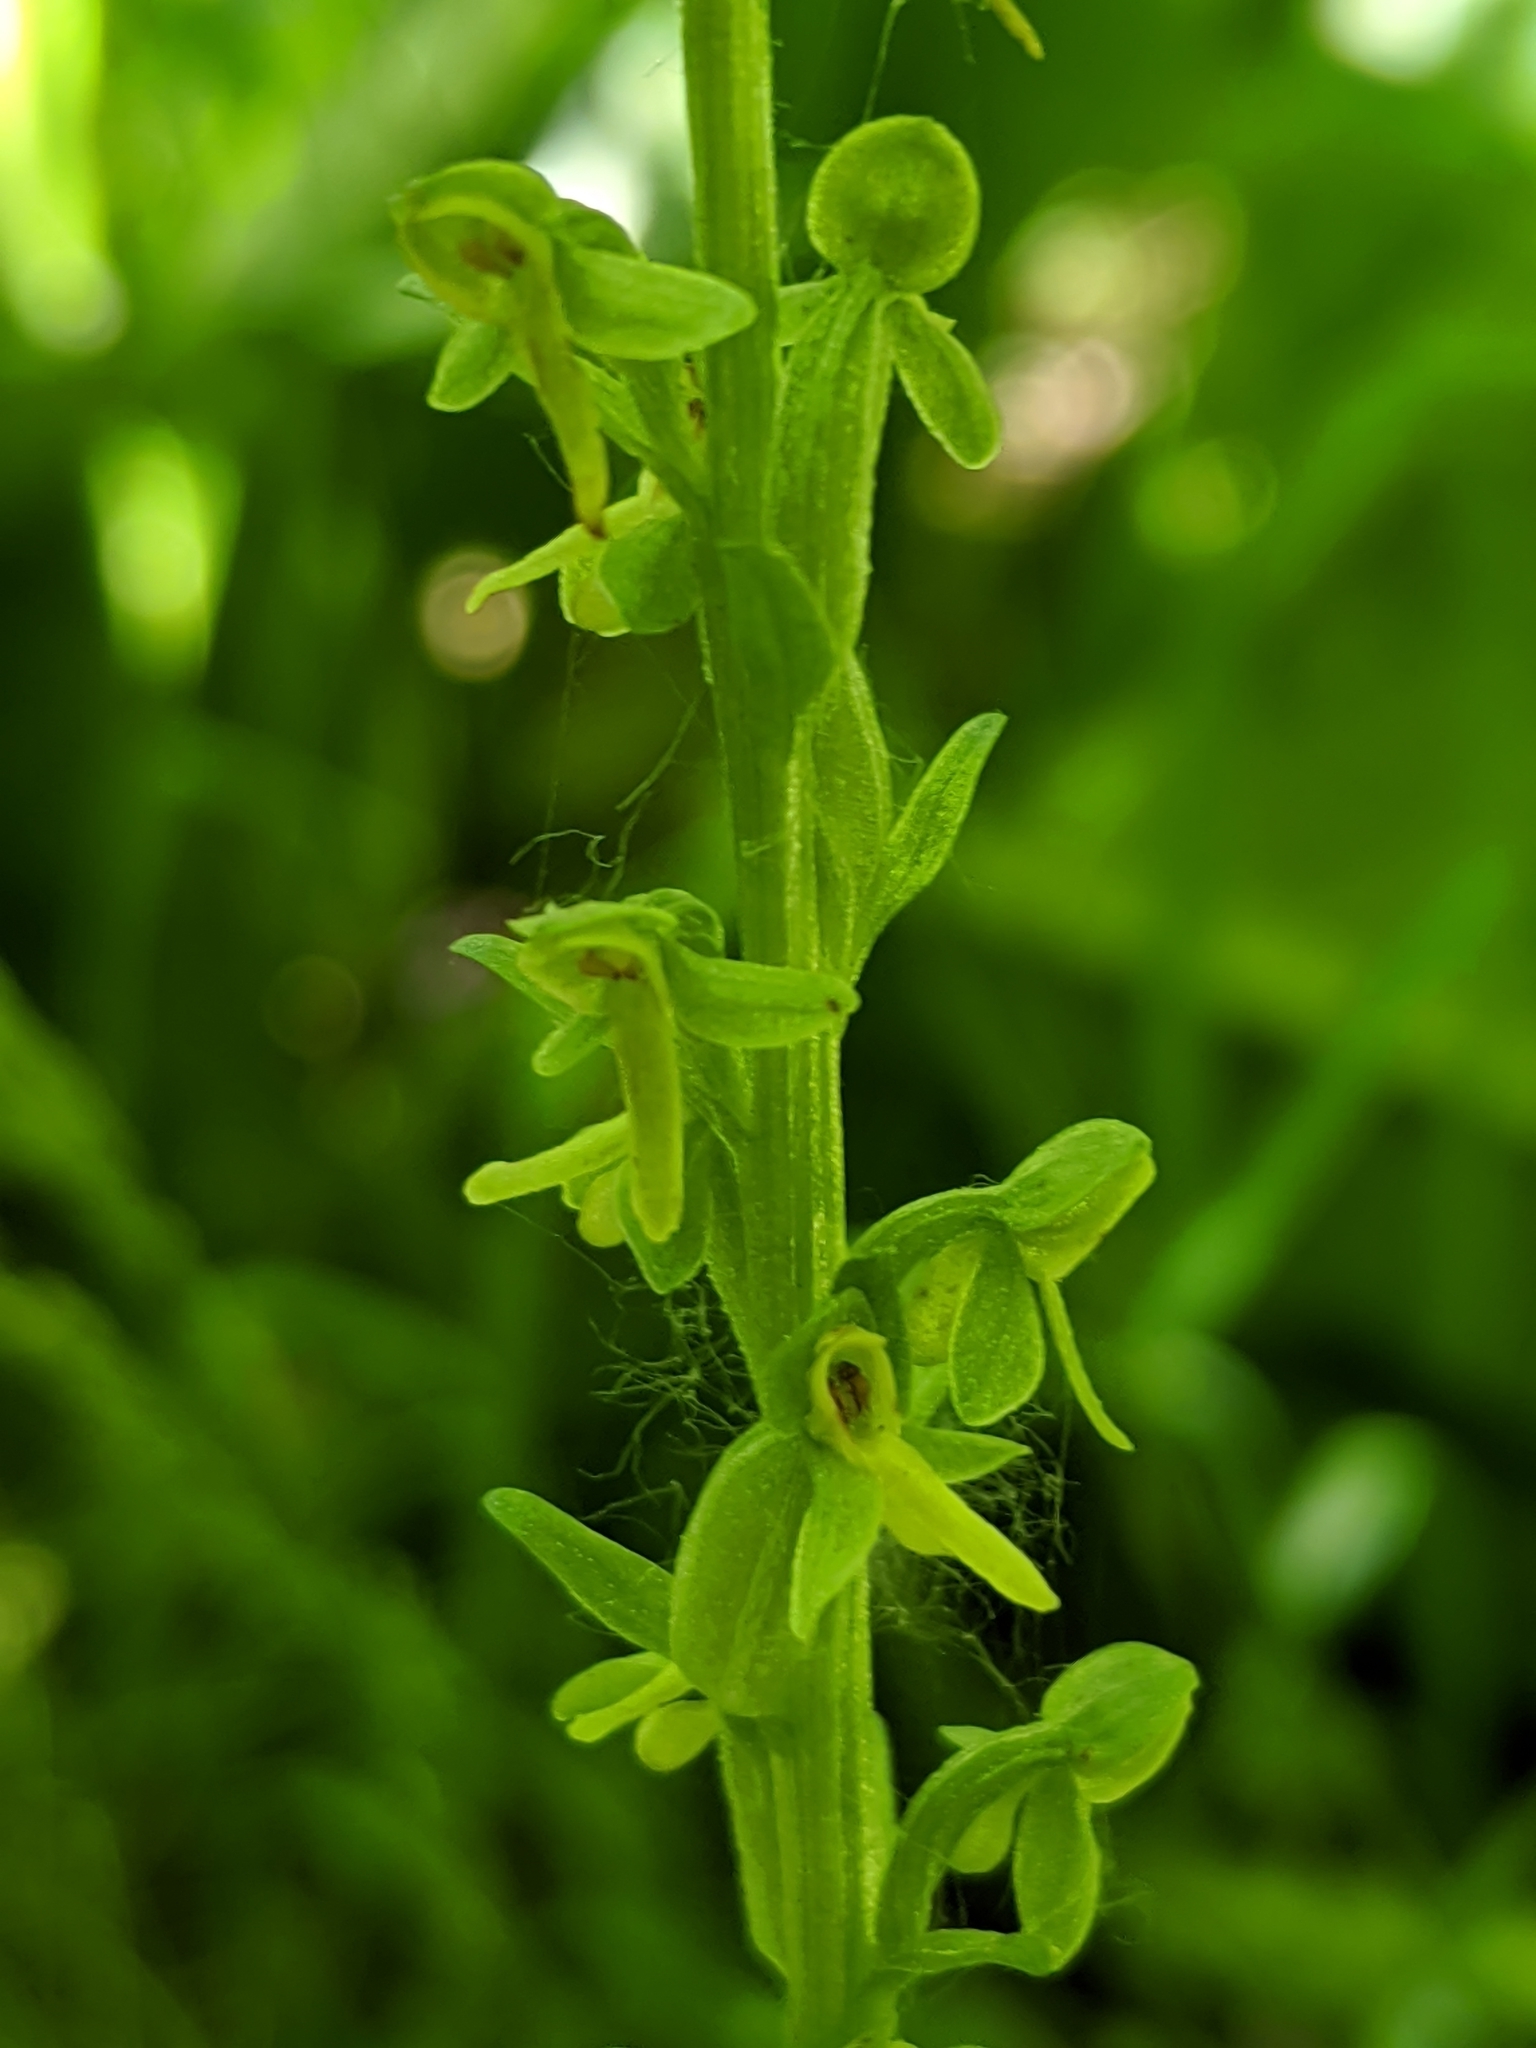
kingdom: Plantae
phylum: Tracheophyta
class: Liliopsida
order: Asparagales
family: Orchidaceae
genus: Platanthera
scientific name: Platanthera stricta
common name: Slender bog orchid
